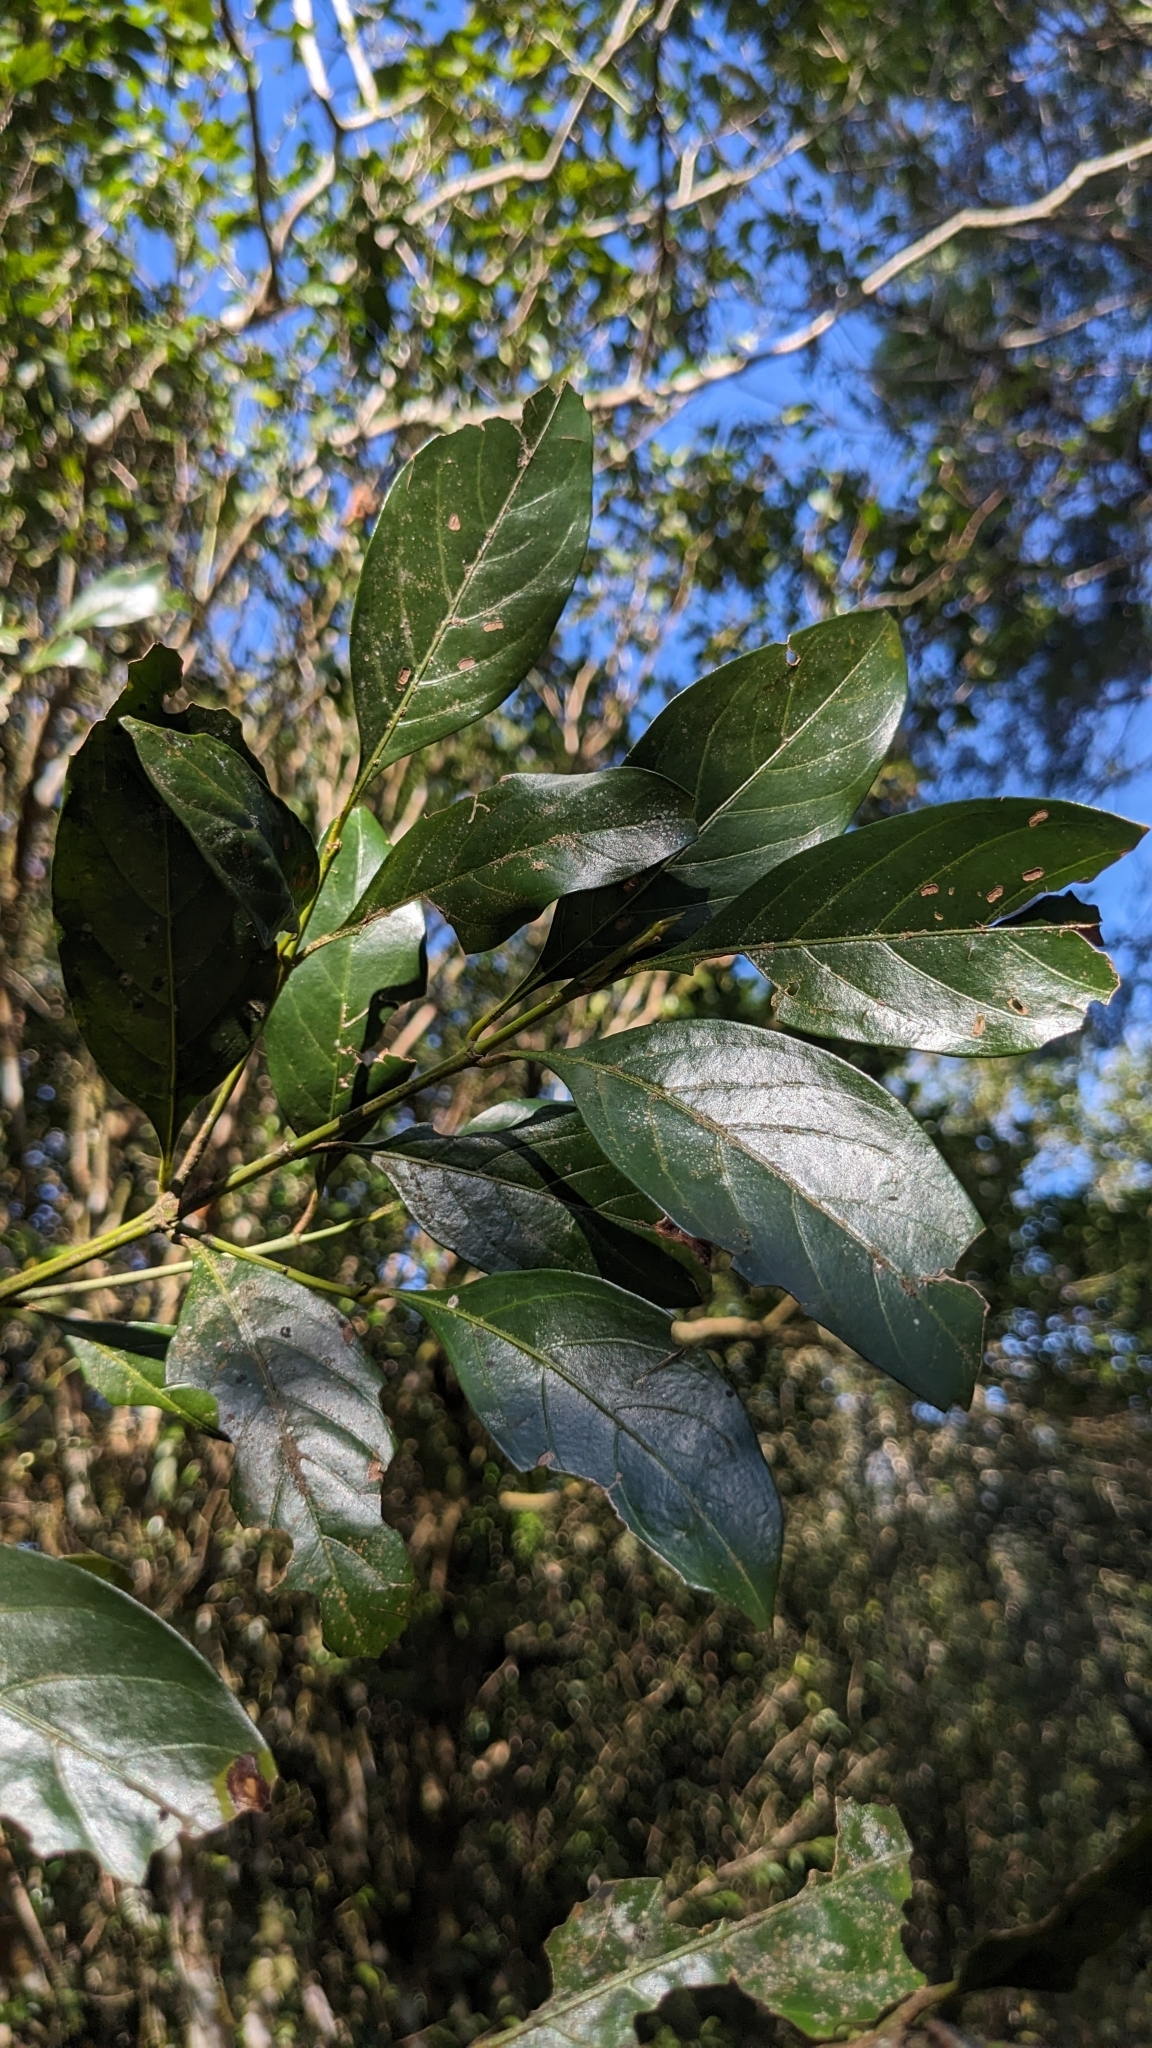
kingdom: Plantae
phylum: Tracheophyta
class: Magnoliopsida
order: Gentianales
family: Rubiaceae
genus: Aidia
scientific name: Aidia cochinchinensis
